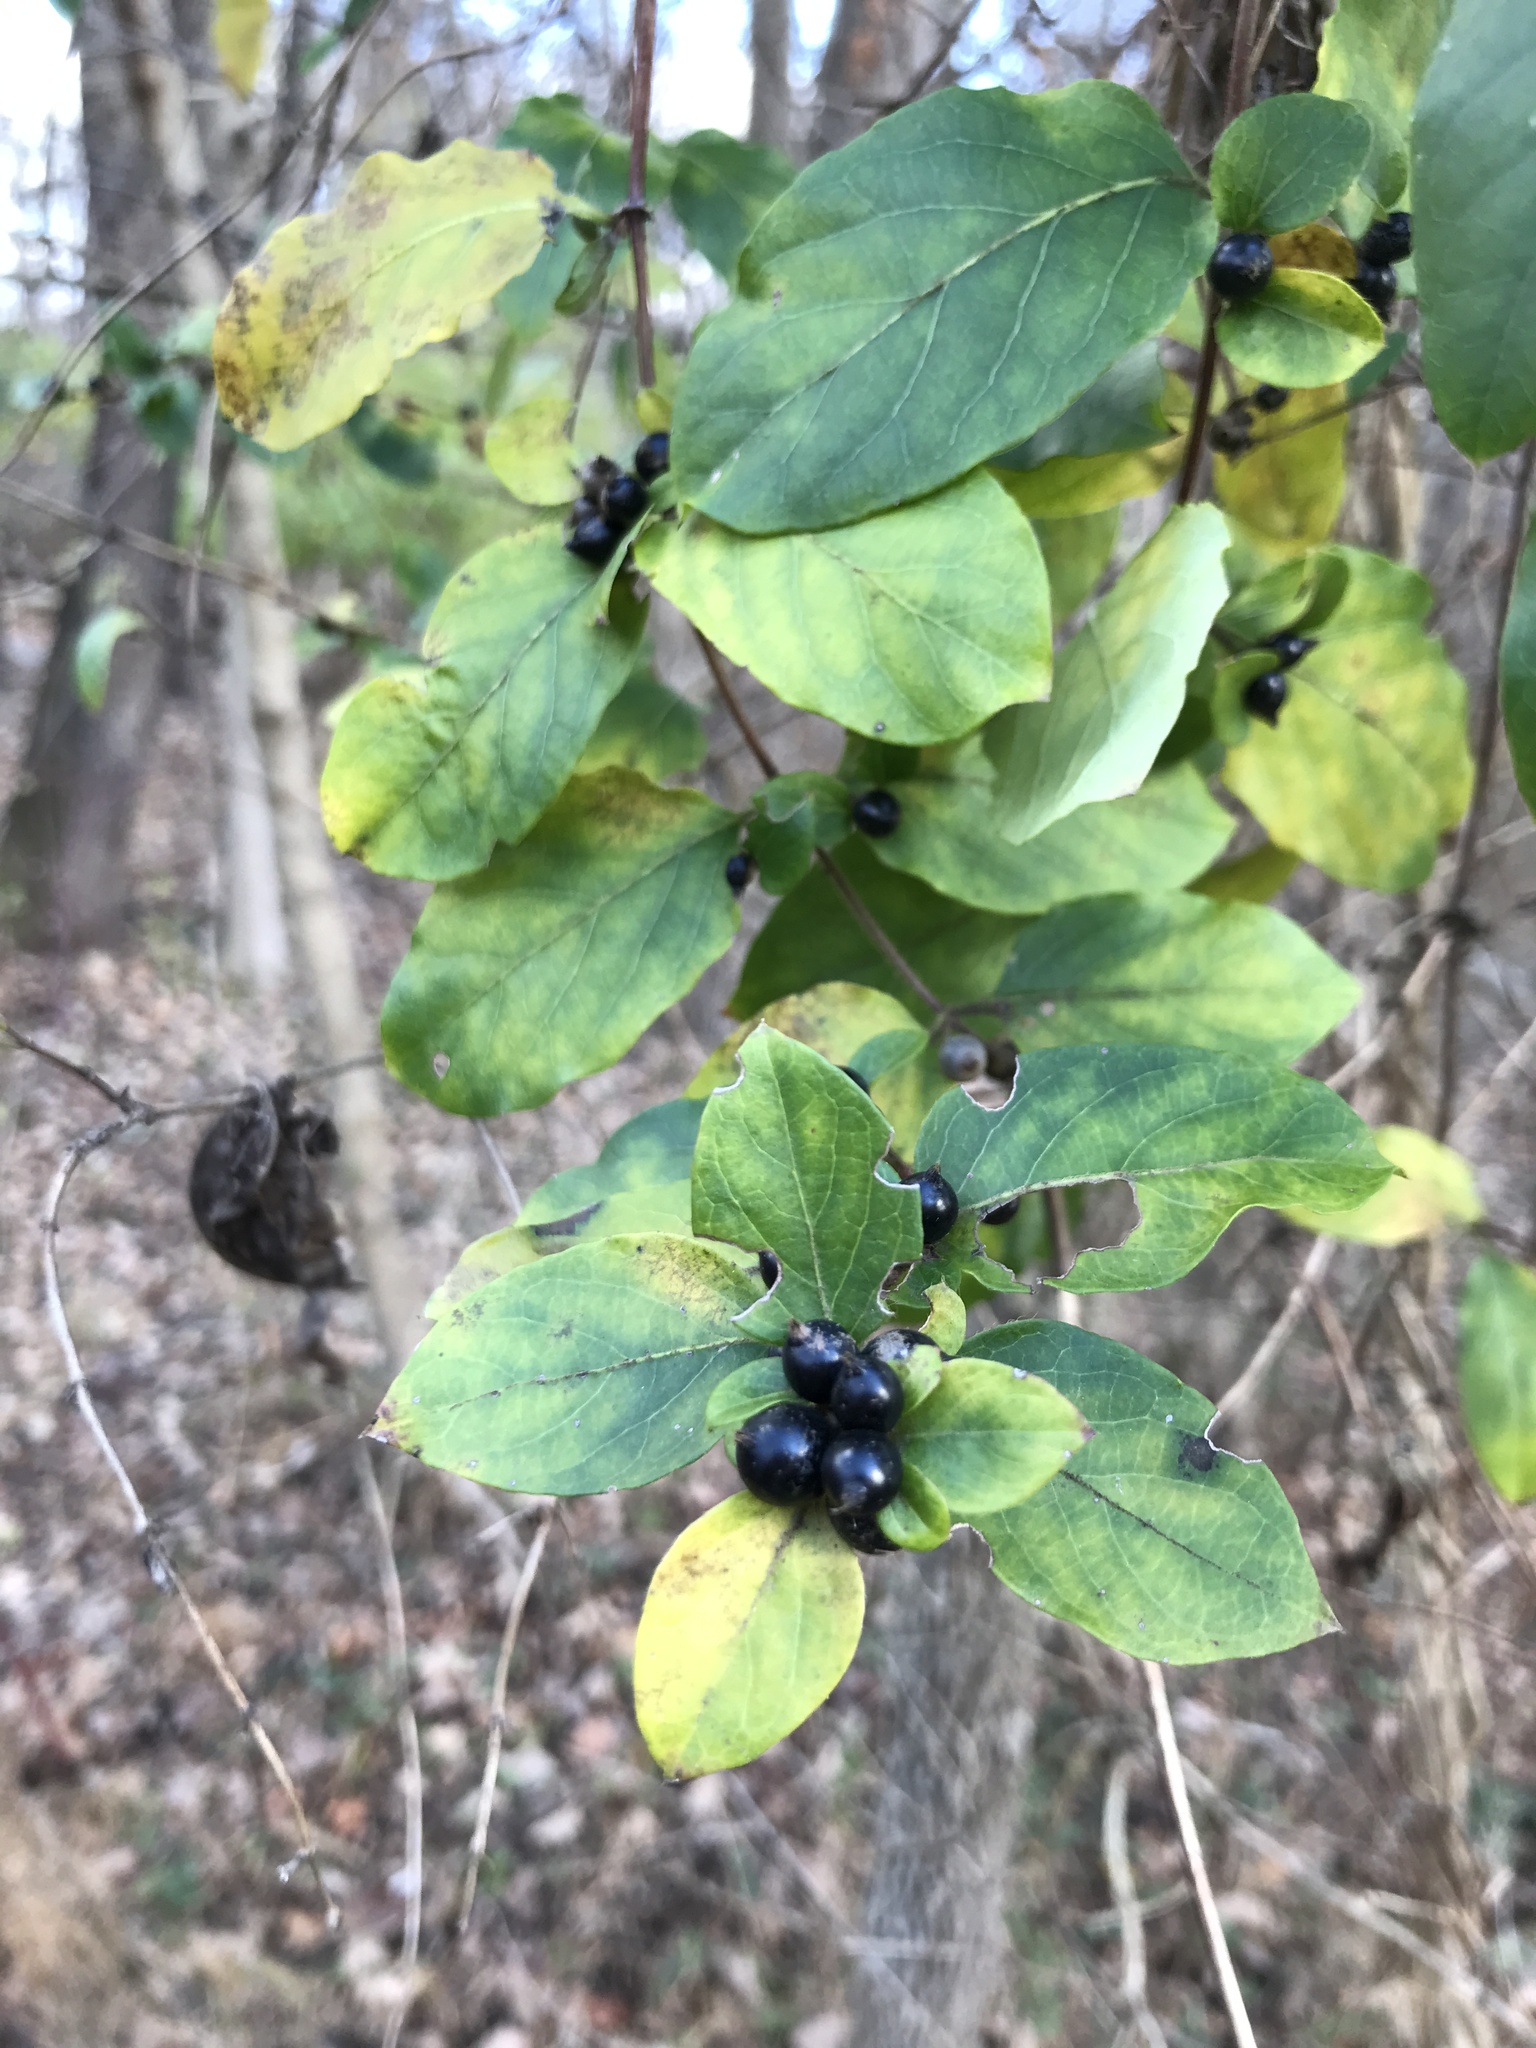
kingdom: Plantae
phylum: Tracheophyta
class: Magnoliopsida
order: Dipsacales
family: Caprifoliaceae
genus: Lonicera
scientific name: Lonicera japonica
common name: Japanese honeysuckle
